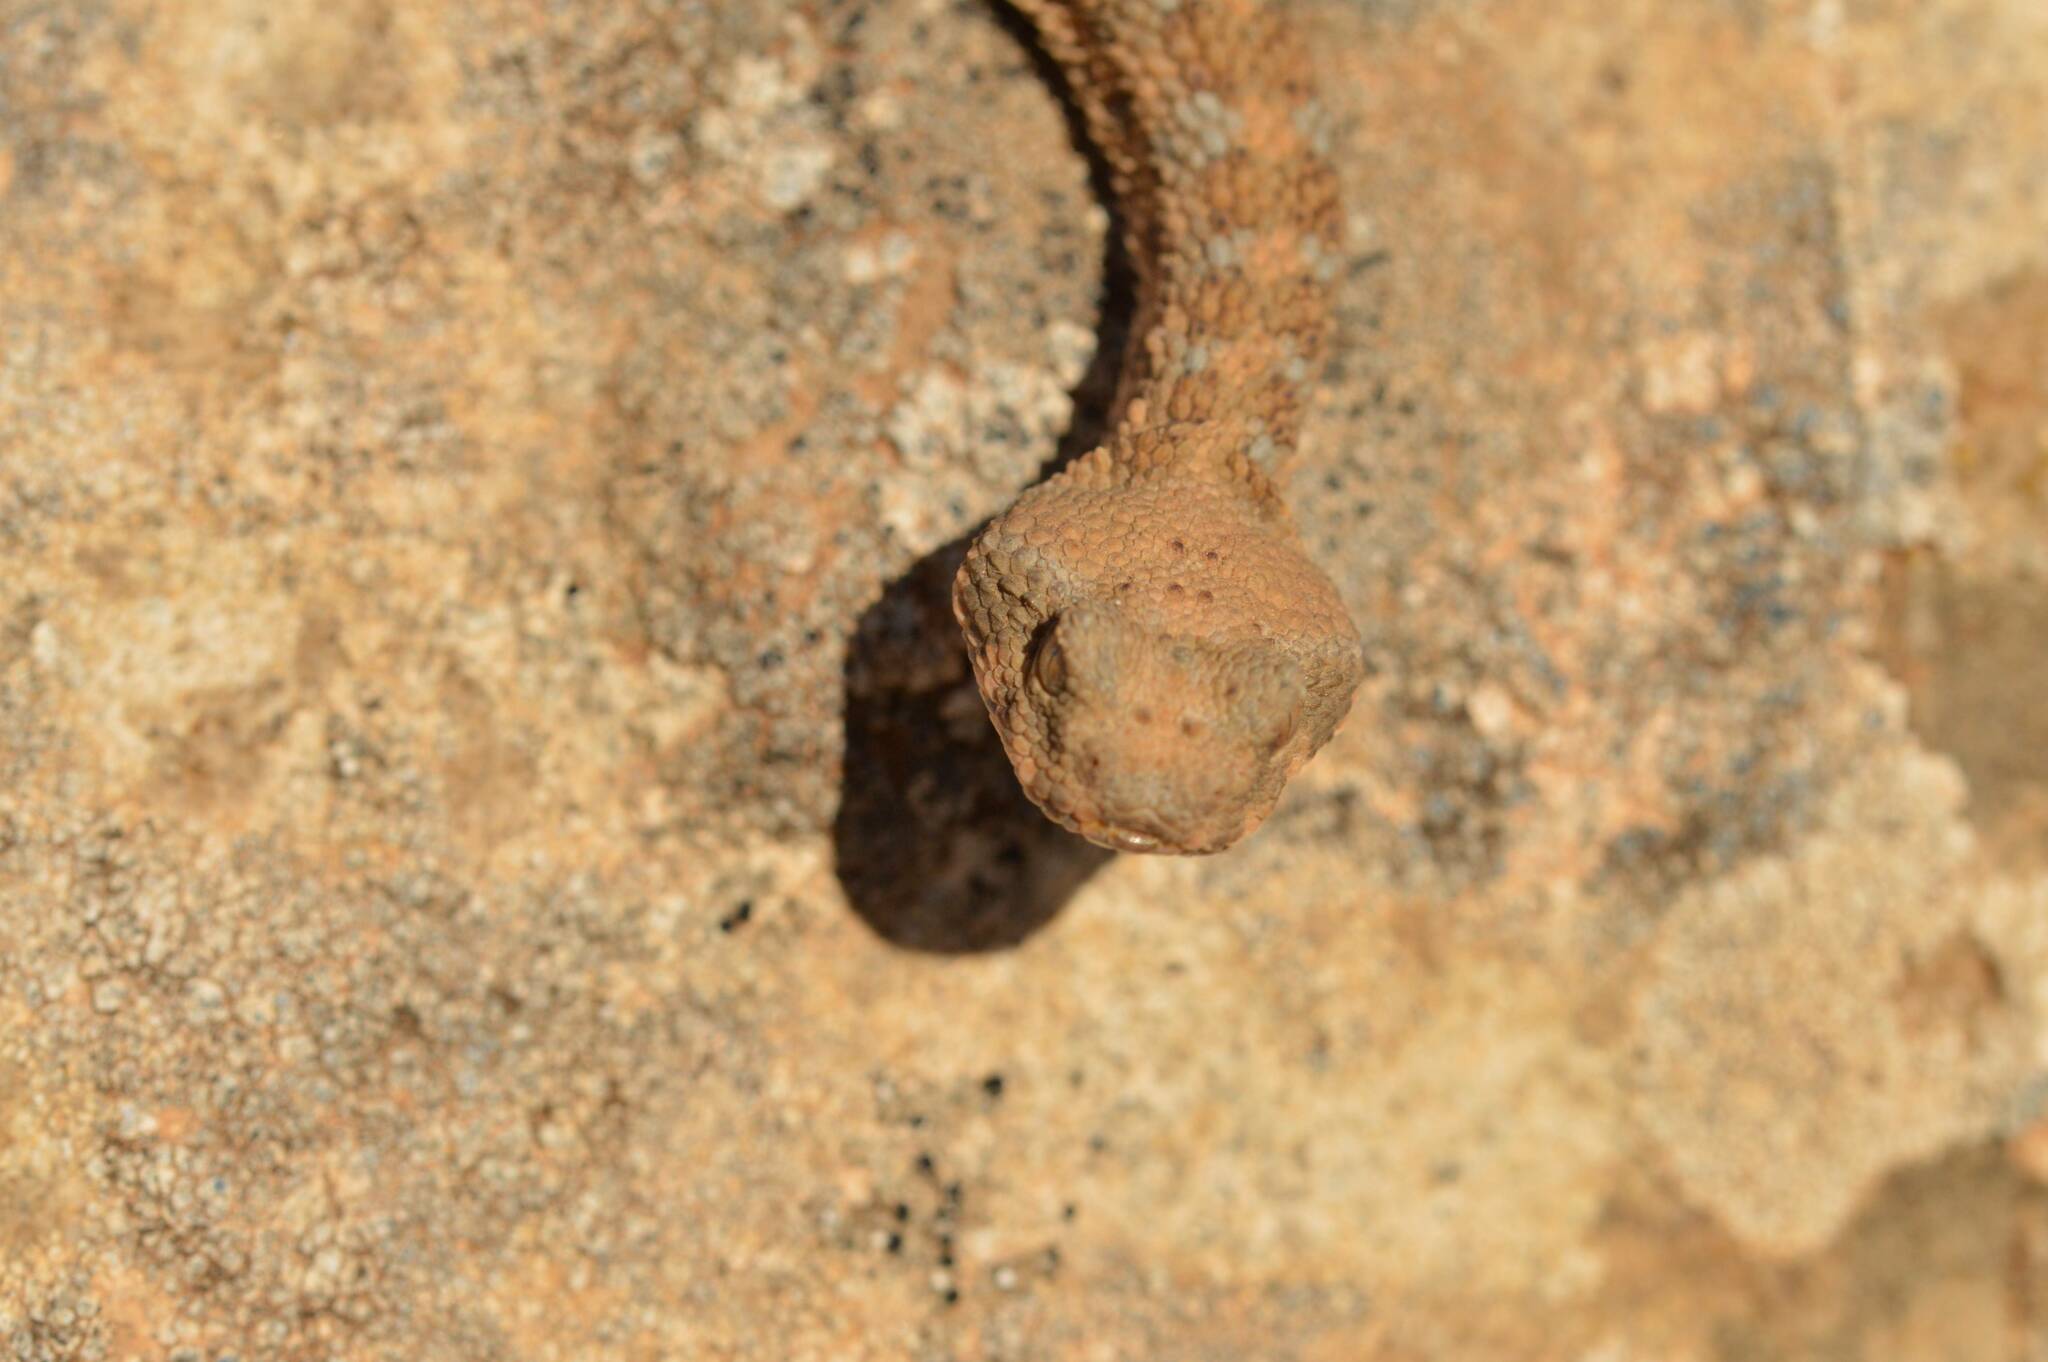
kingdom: Animalia
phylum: Chordata
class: Squamata
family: Viperidae
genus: Cerastes
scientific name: Cerastes cerastes
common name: Desert horned viper
